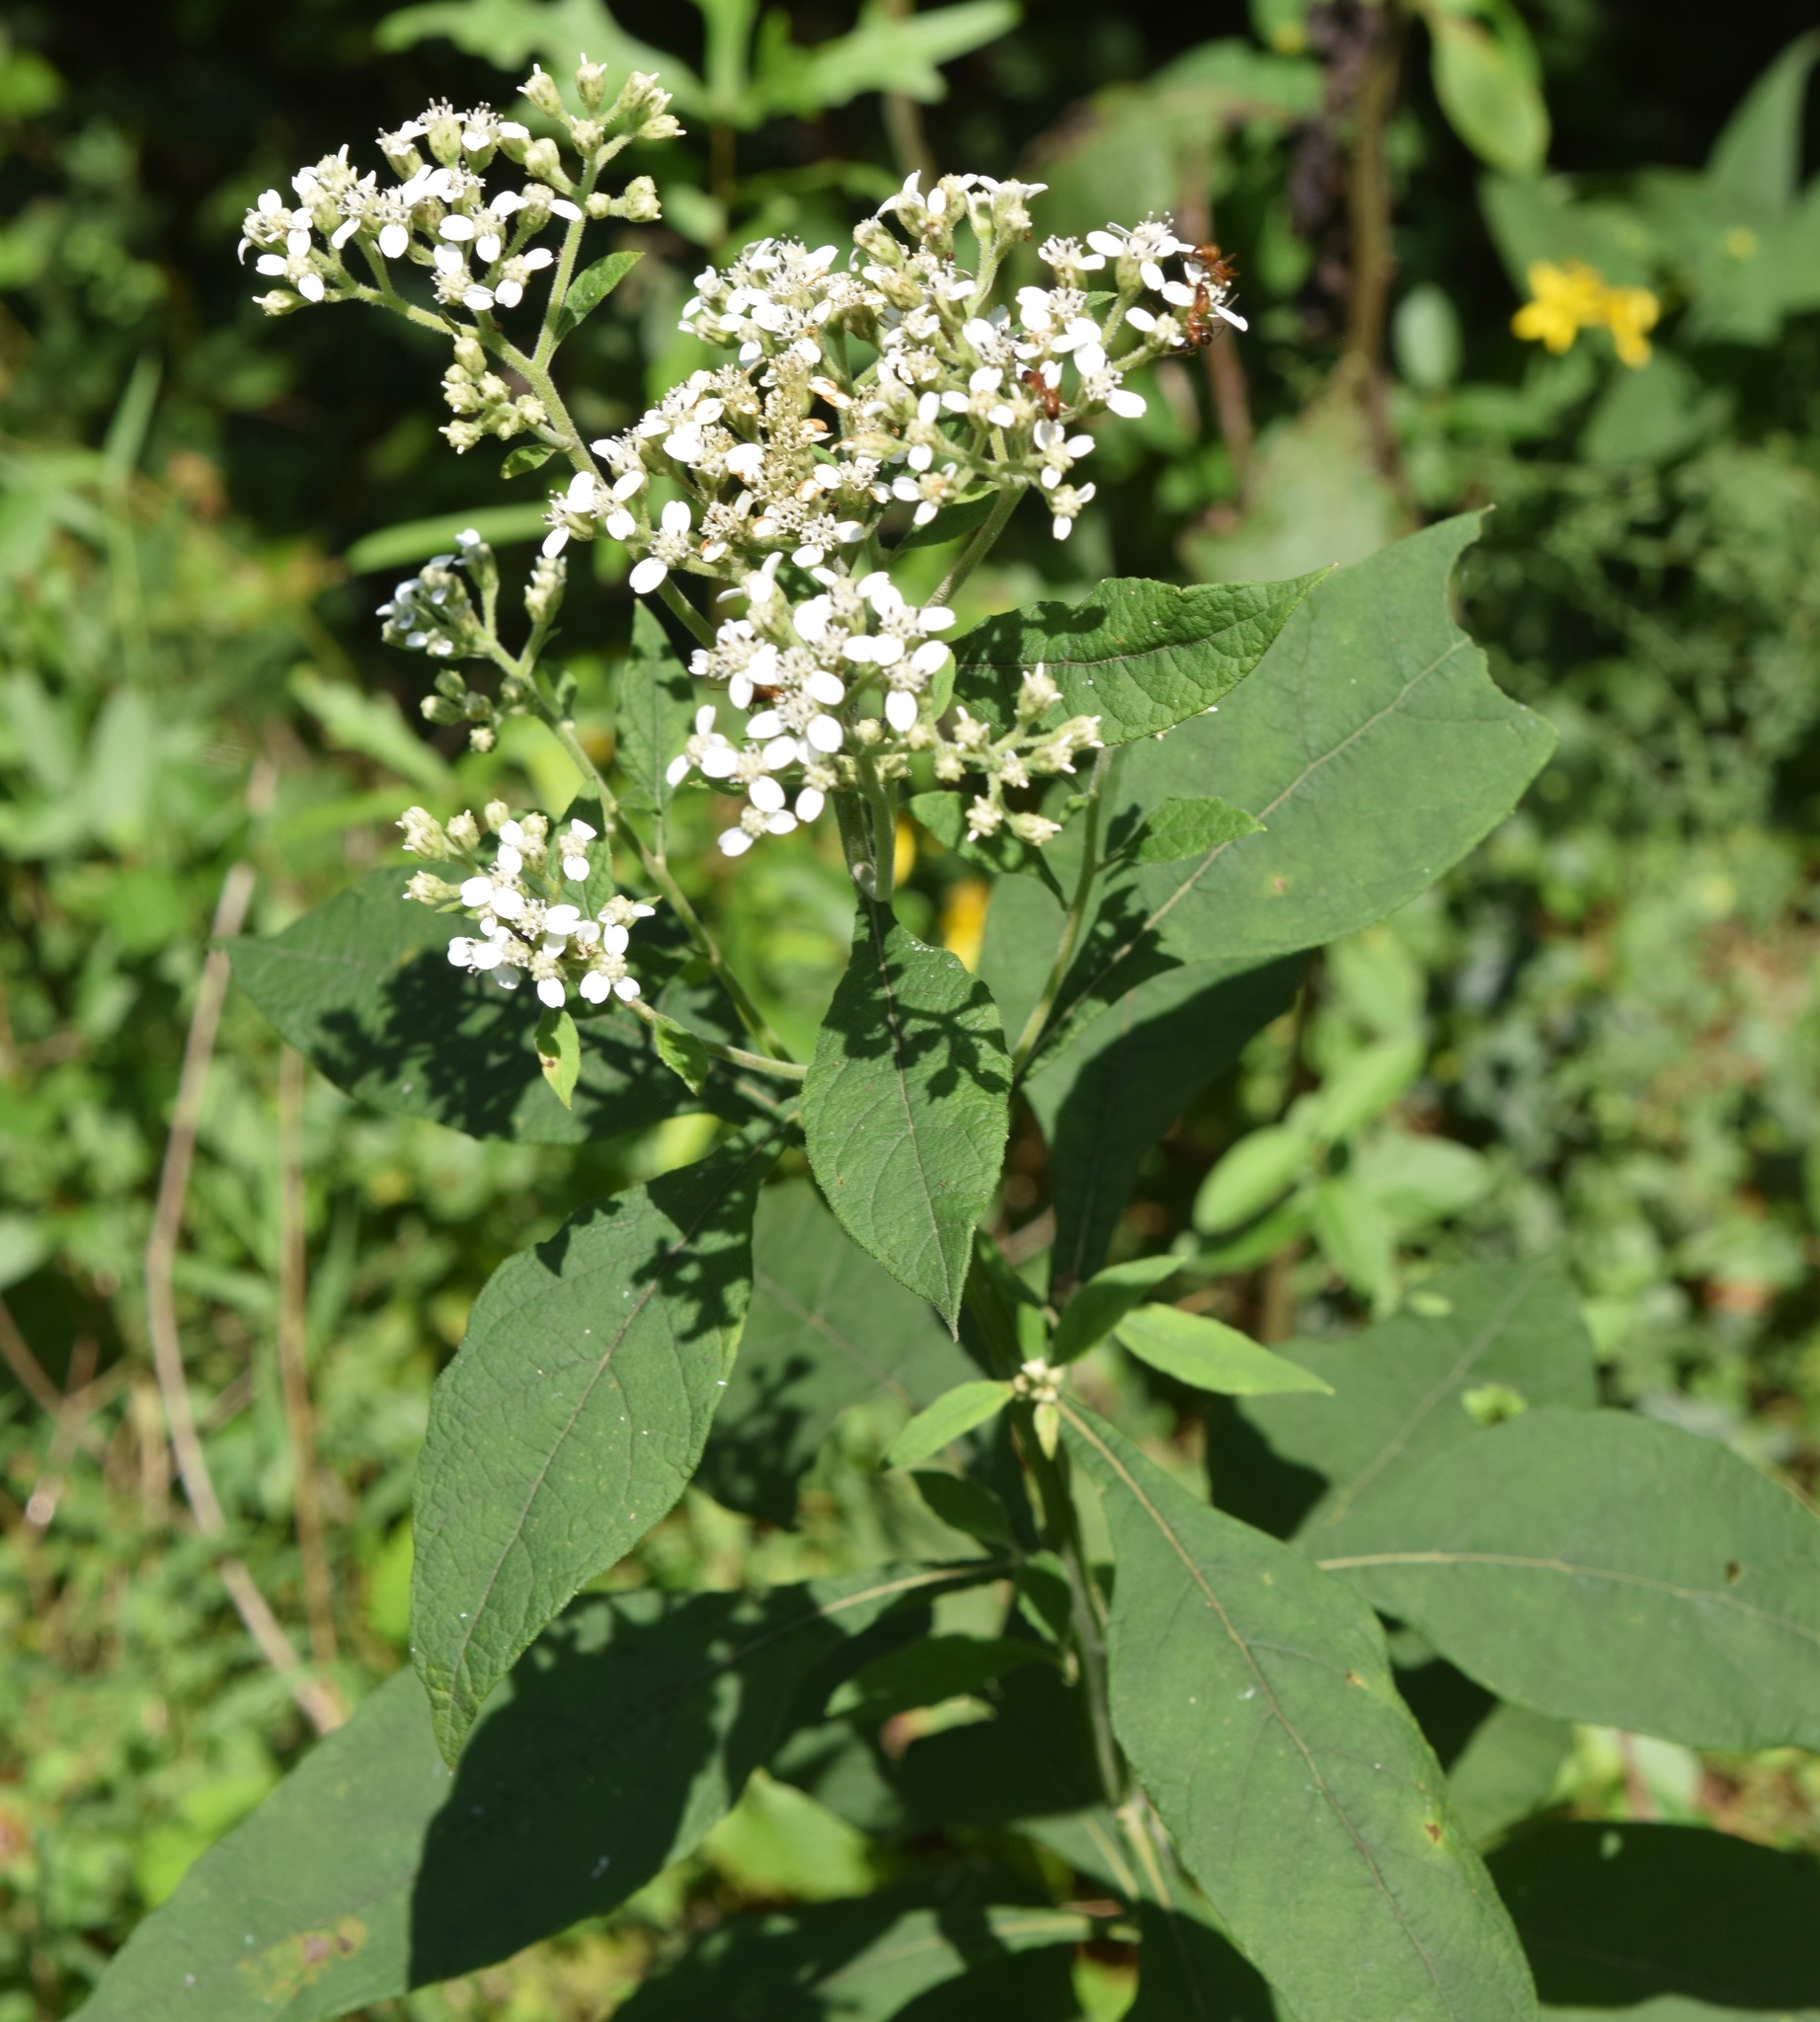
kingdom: Plantae
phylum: Tracheophyta
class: Magnoliopsida
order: Asterales
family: Asteraceae
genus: Verbesina
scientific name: Verbesina virginica
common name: Frostweed
